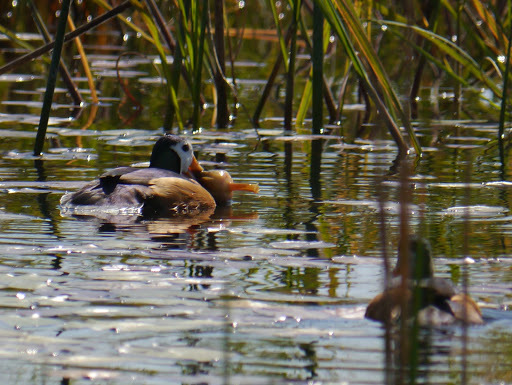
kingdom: Animalia
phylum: Chordata
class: Aves
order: Anseriformes
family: Anatidae
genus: Nettapus
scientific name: Nettapus auritus
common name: African pygmy-goose
